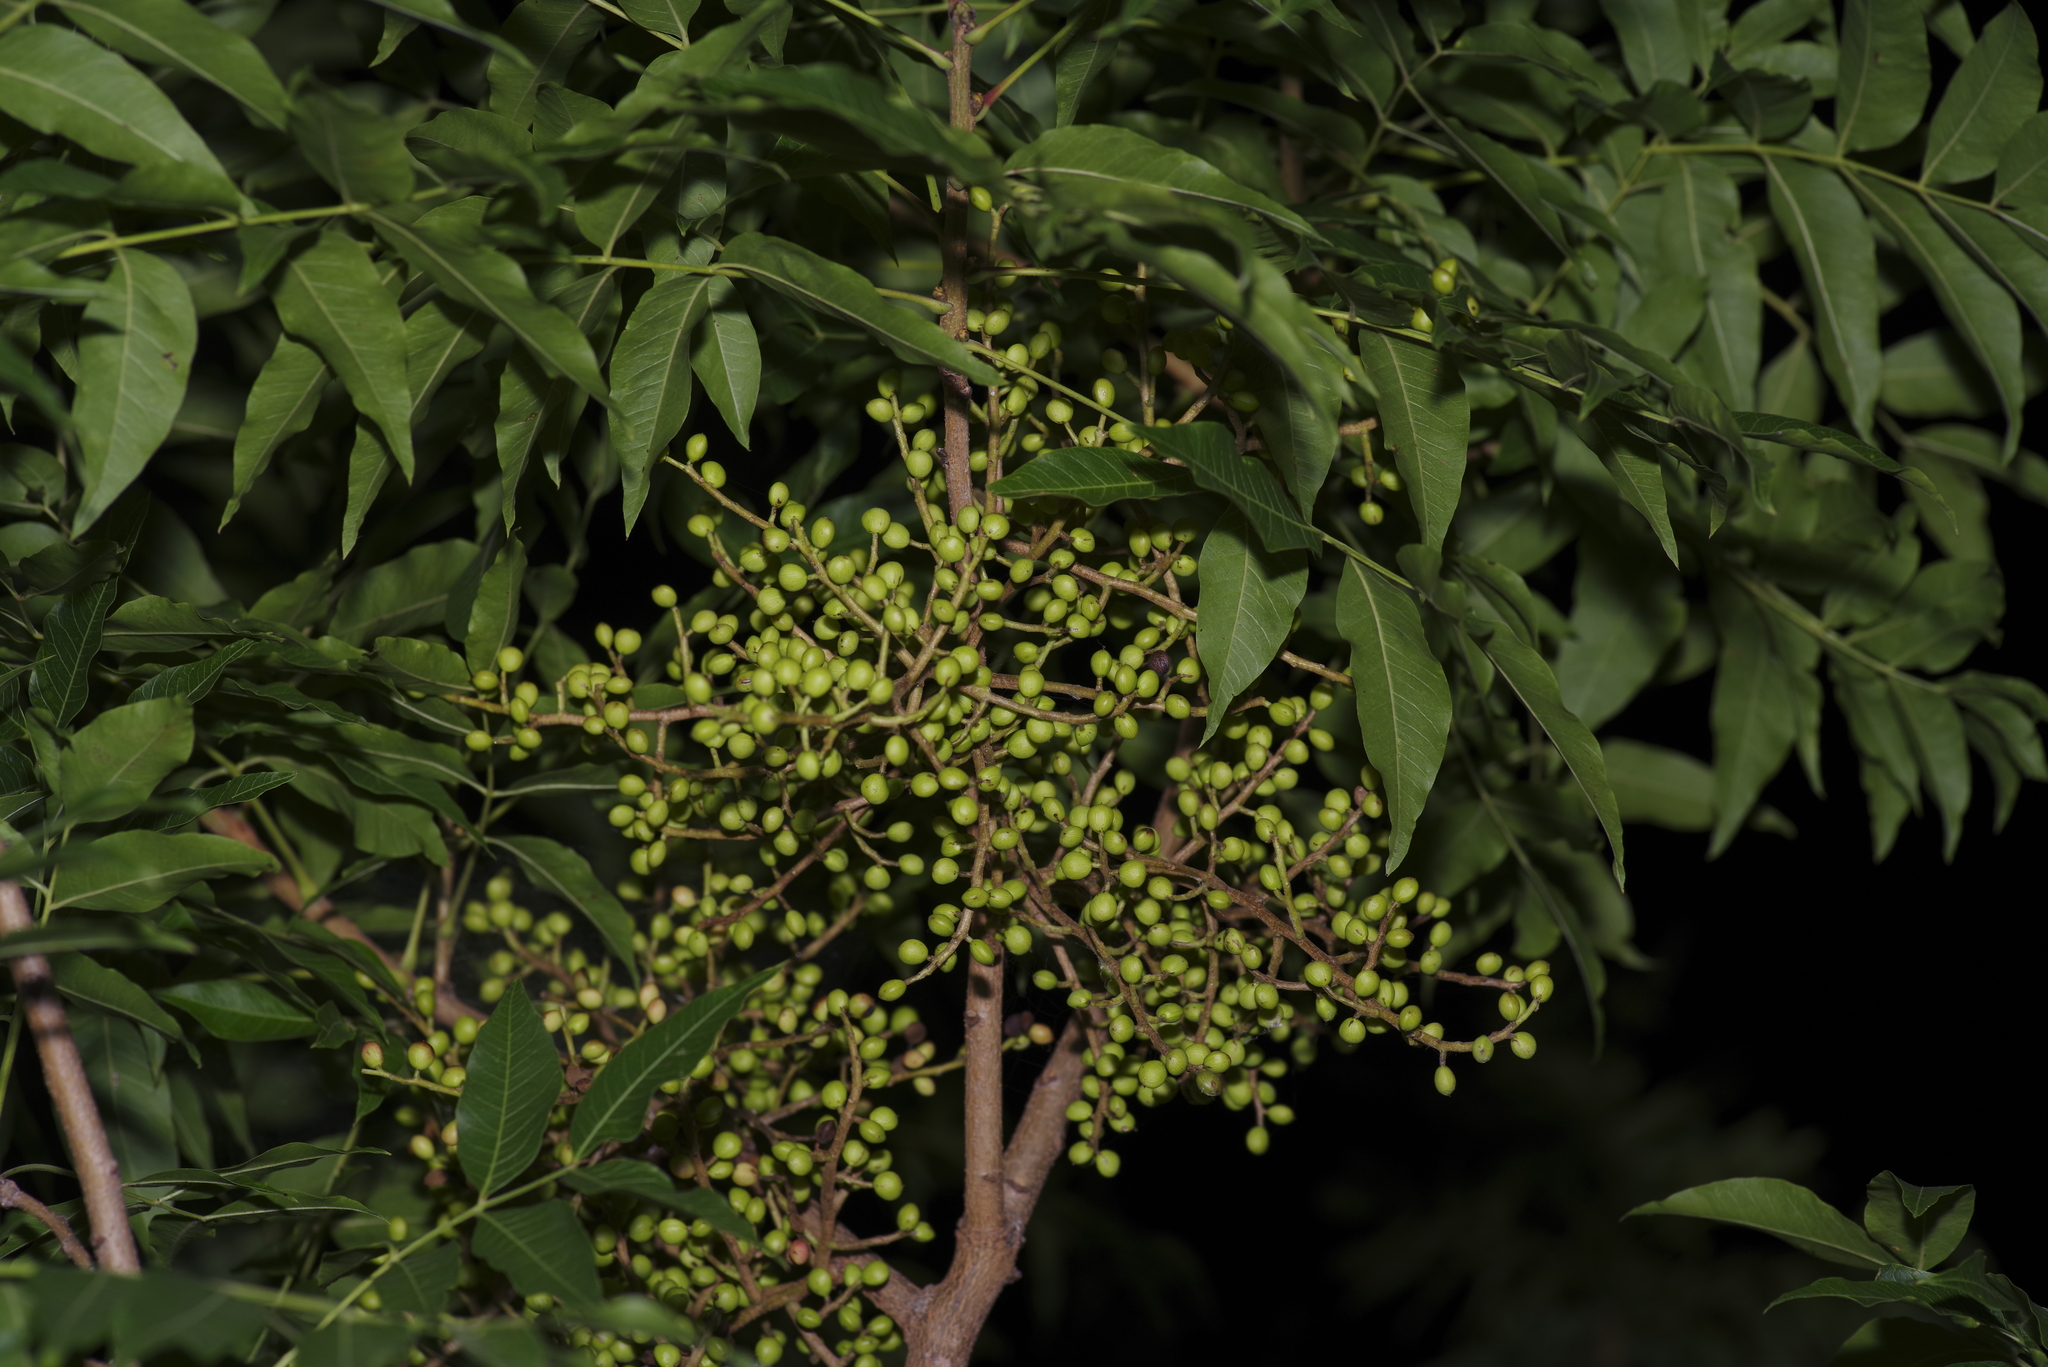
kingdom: Plantae
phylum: Tracheophyta
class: Magnoliopsida
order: Sapindales
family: Anacardiaceae
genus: Pistacia
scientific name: Pistacia chinensis
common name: Chinese pistache
